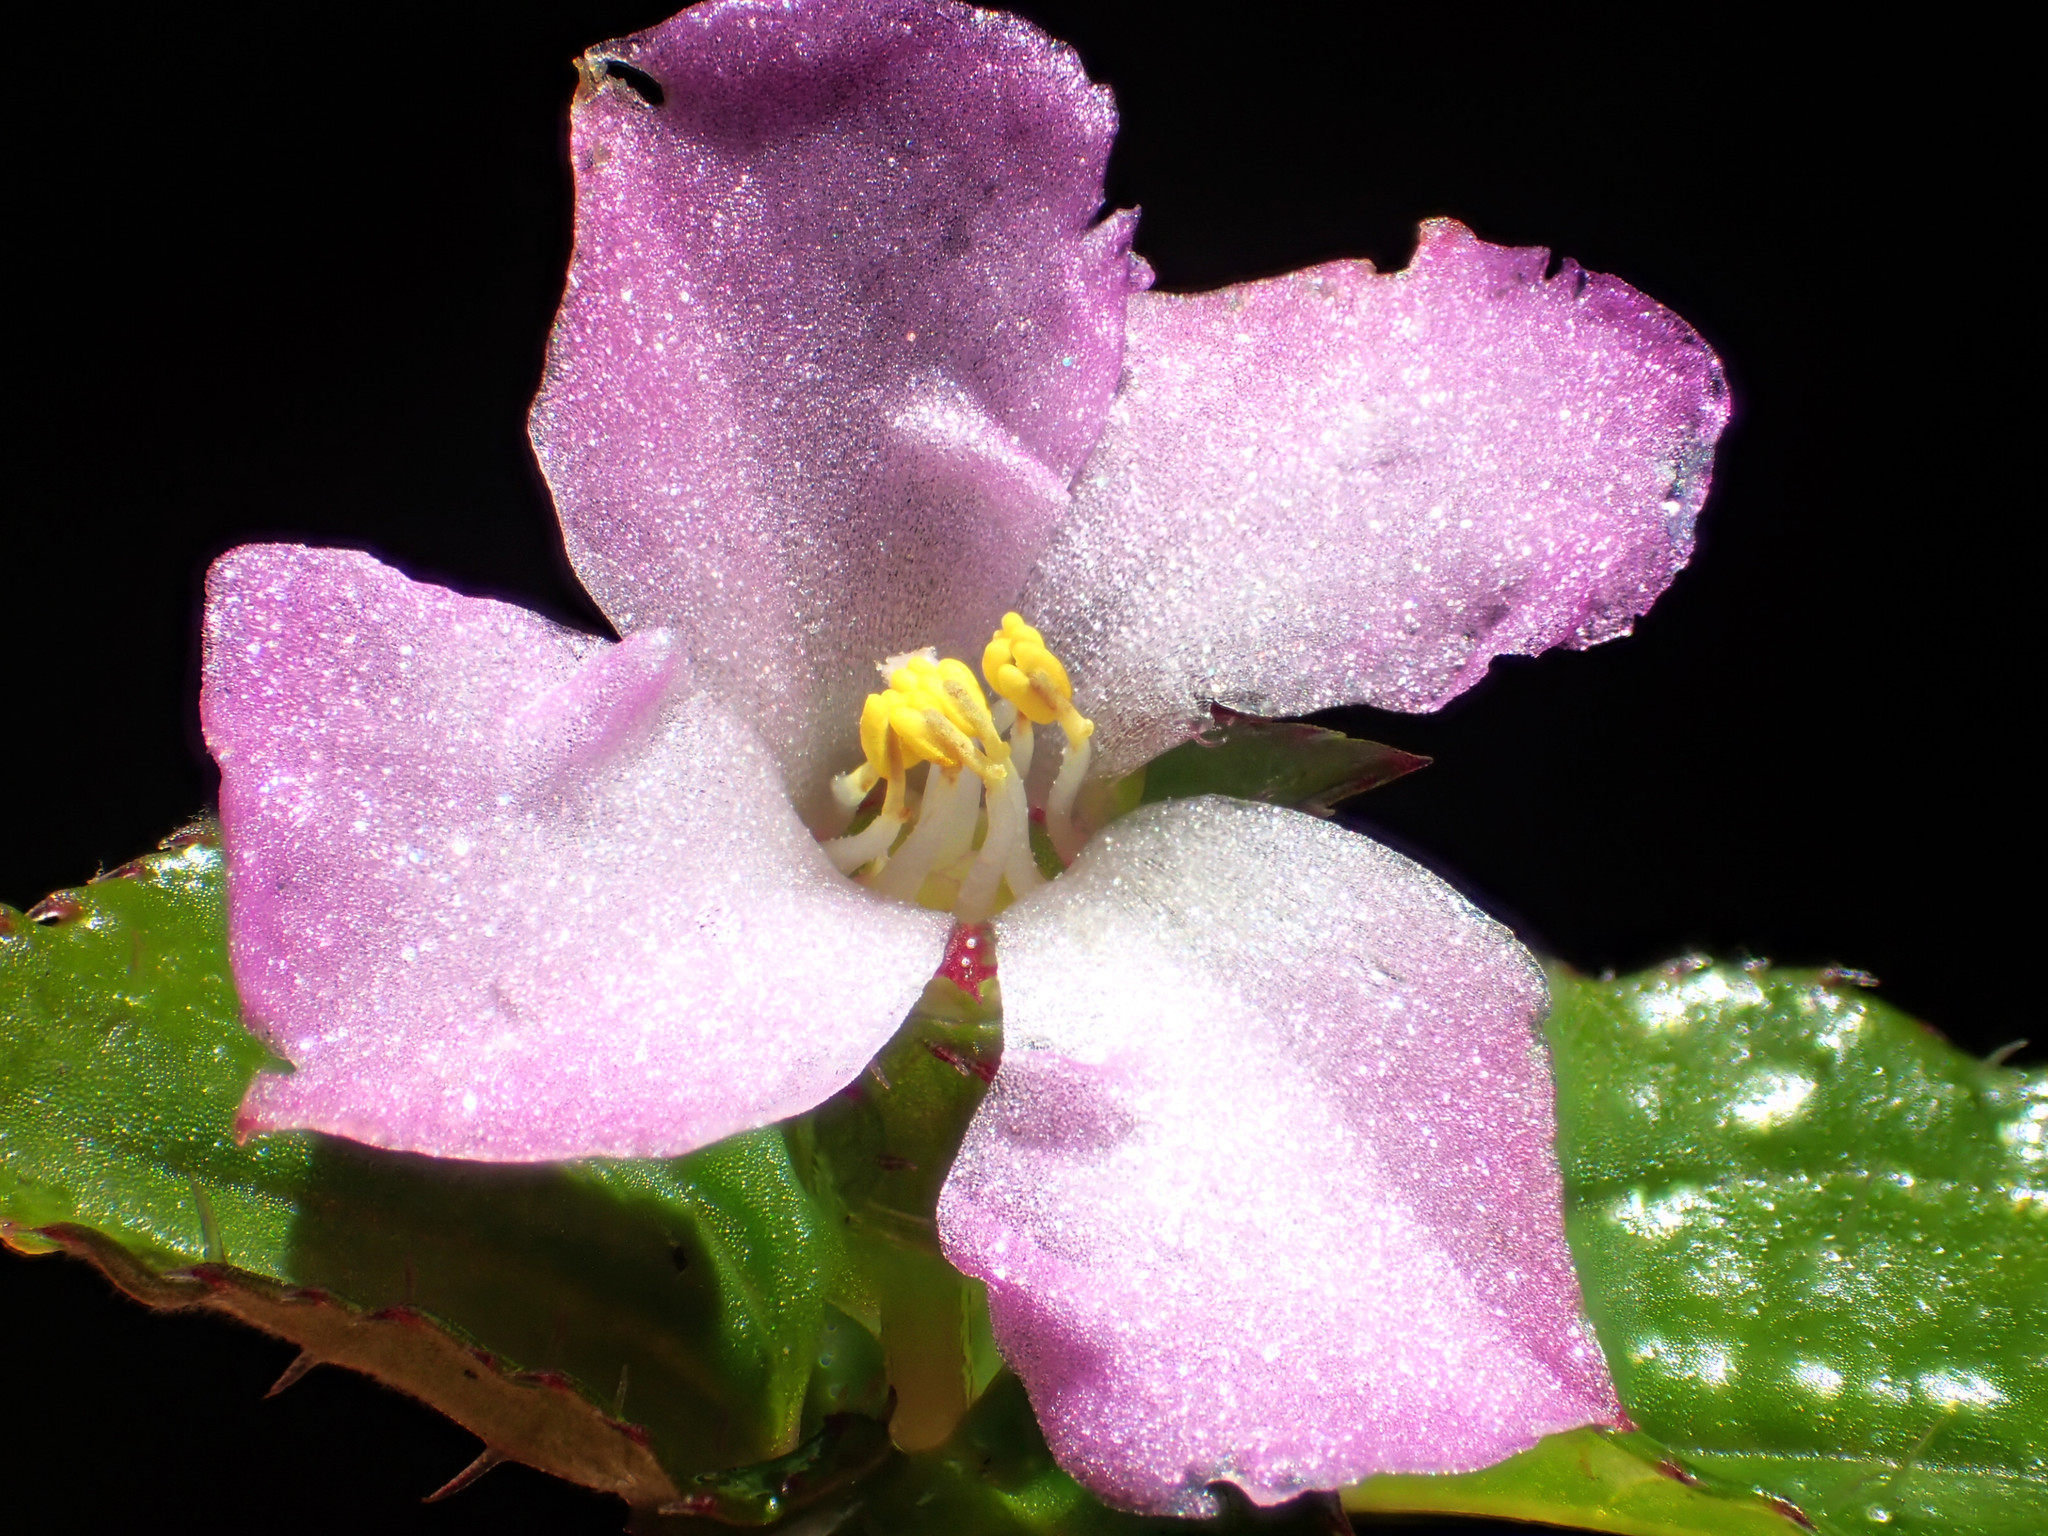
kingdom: Plantae
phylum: Tracheophyta
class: Magnoliopsida
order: Myrtales
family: Melastomataceae
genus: Sarcopyramis
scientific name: Sarcopyramis bodinieri
